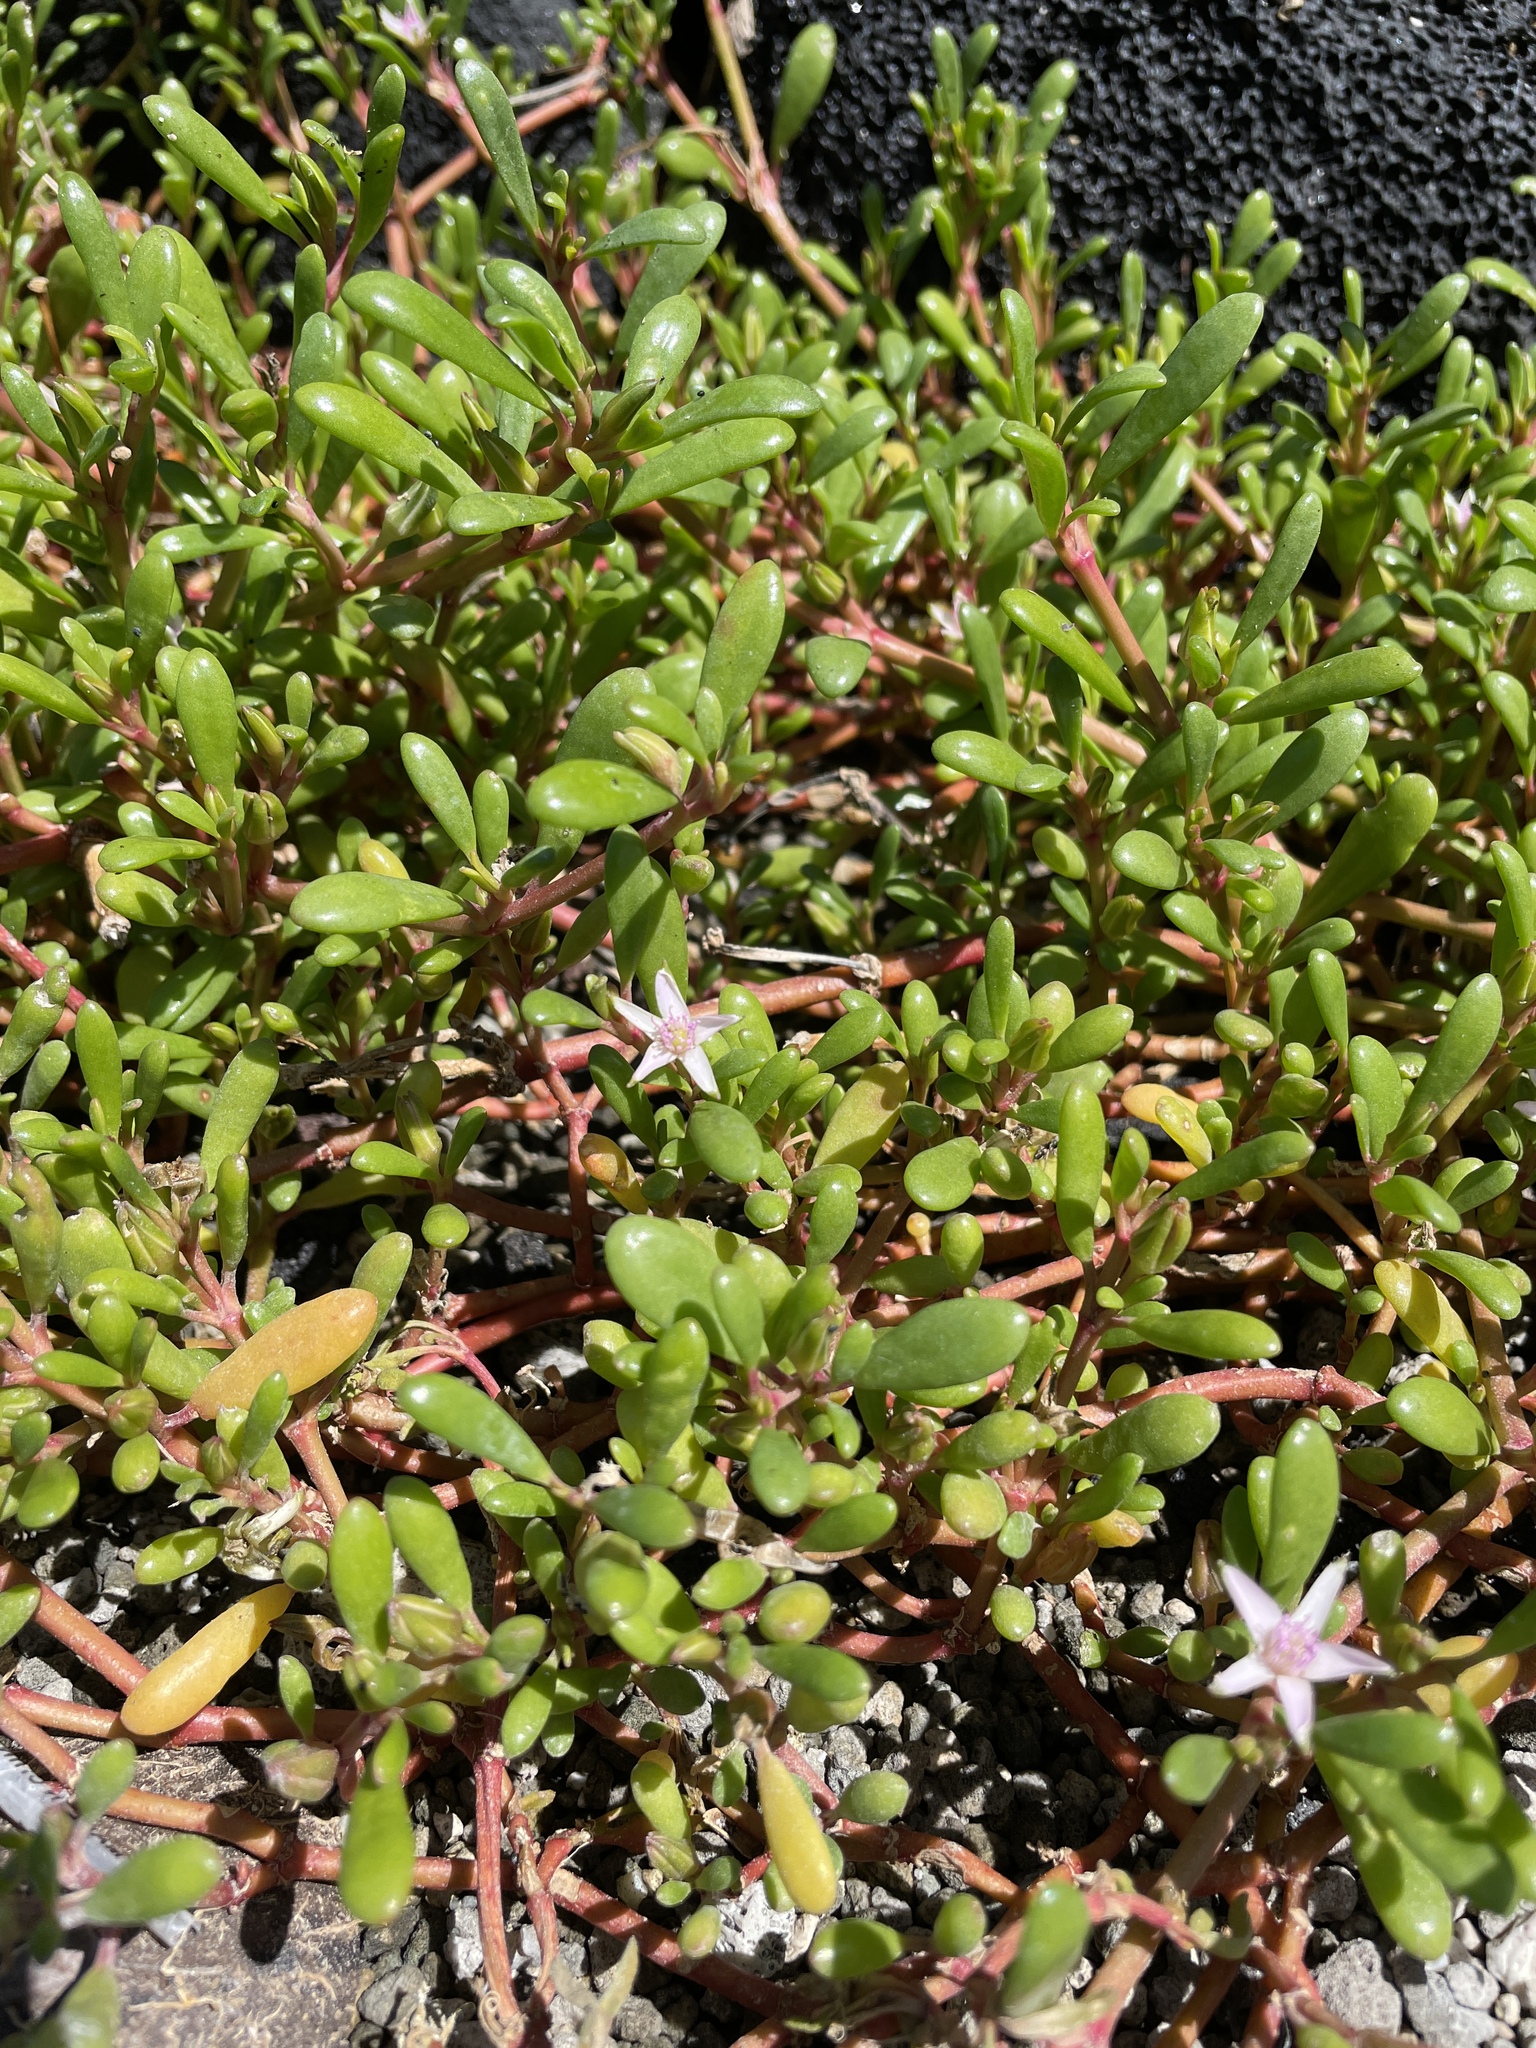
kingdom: Plantae
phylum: Tracheophyta
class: Magnoliopsida
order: Caryophyllales
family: Aizoaceae
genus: Sesuvium
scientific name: Sesuvium portulacastrum
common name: Sea-purslane
